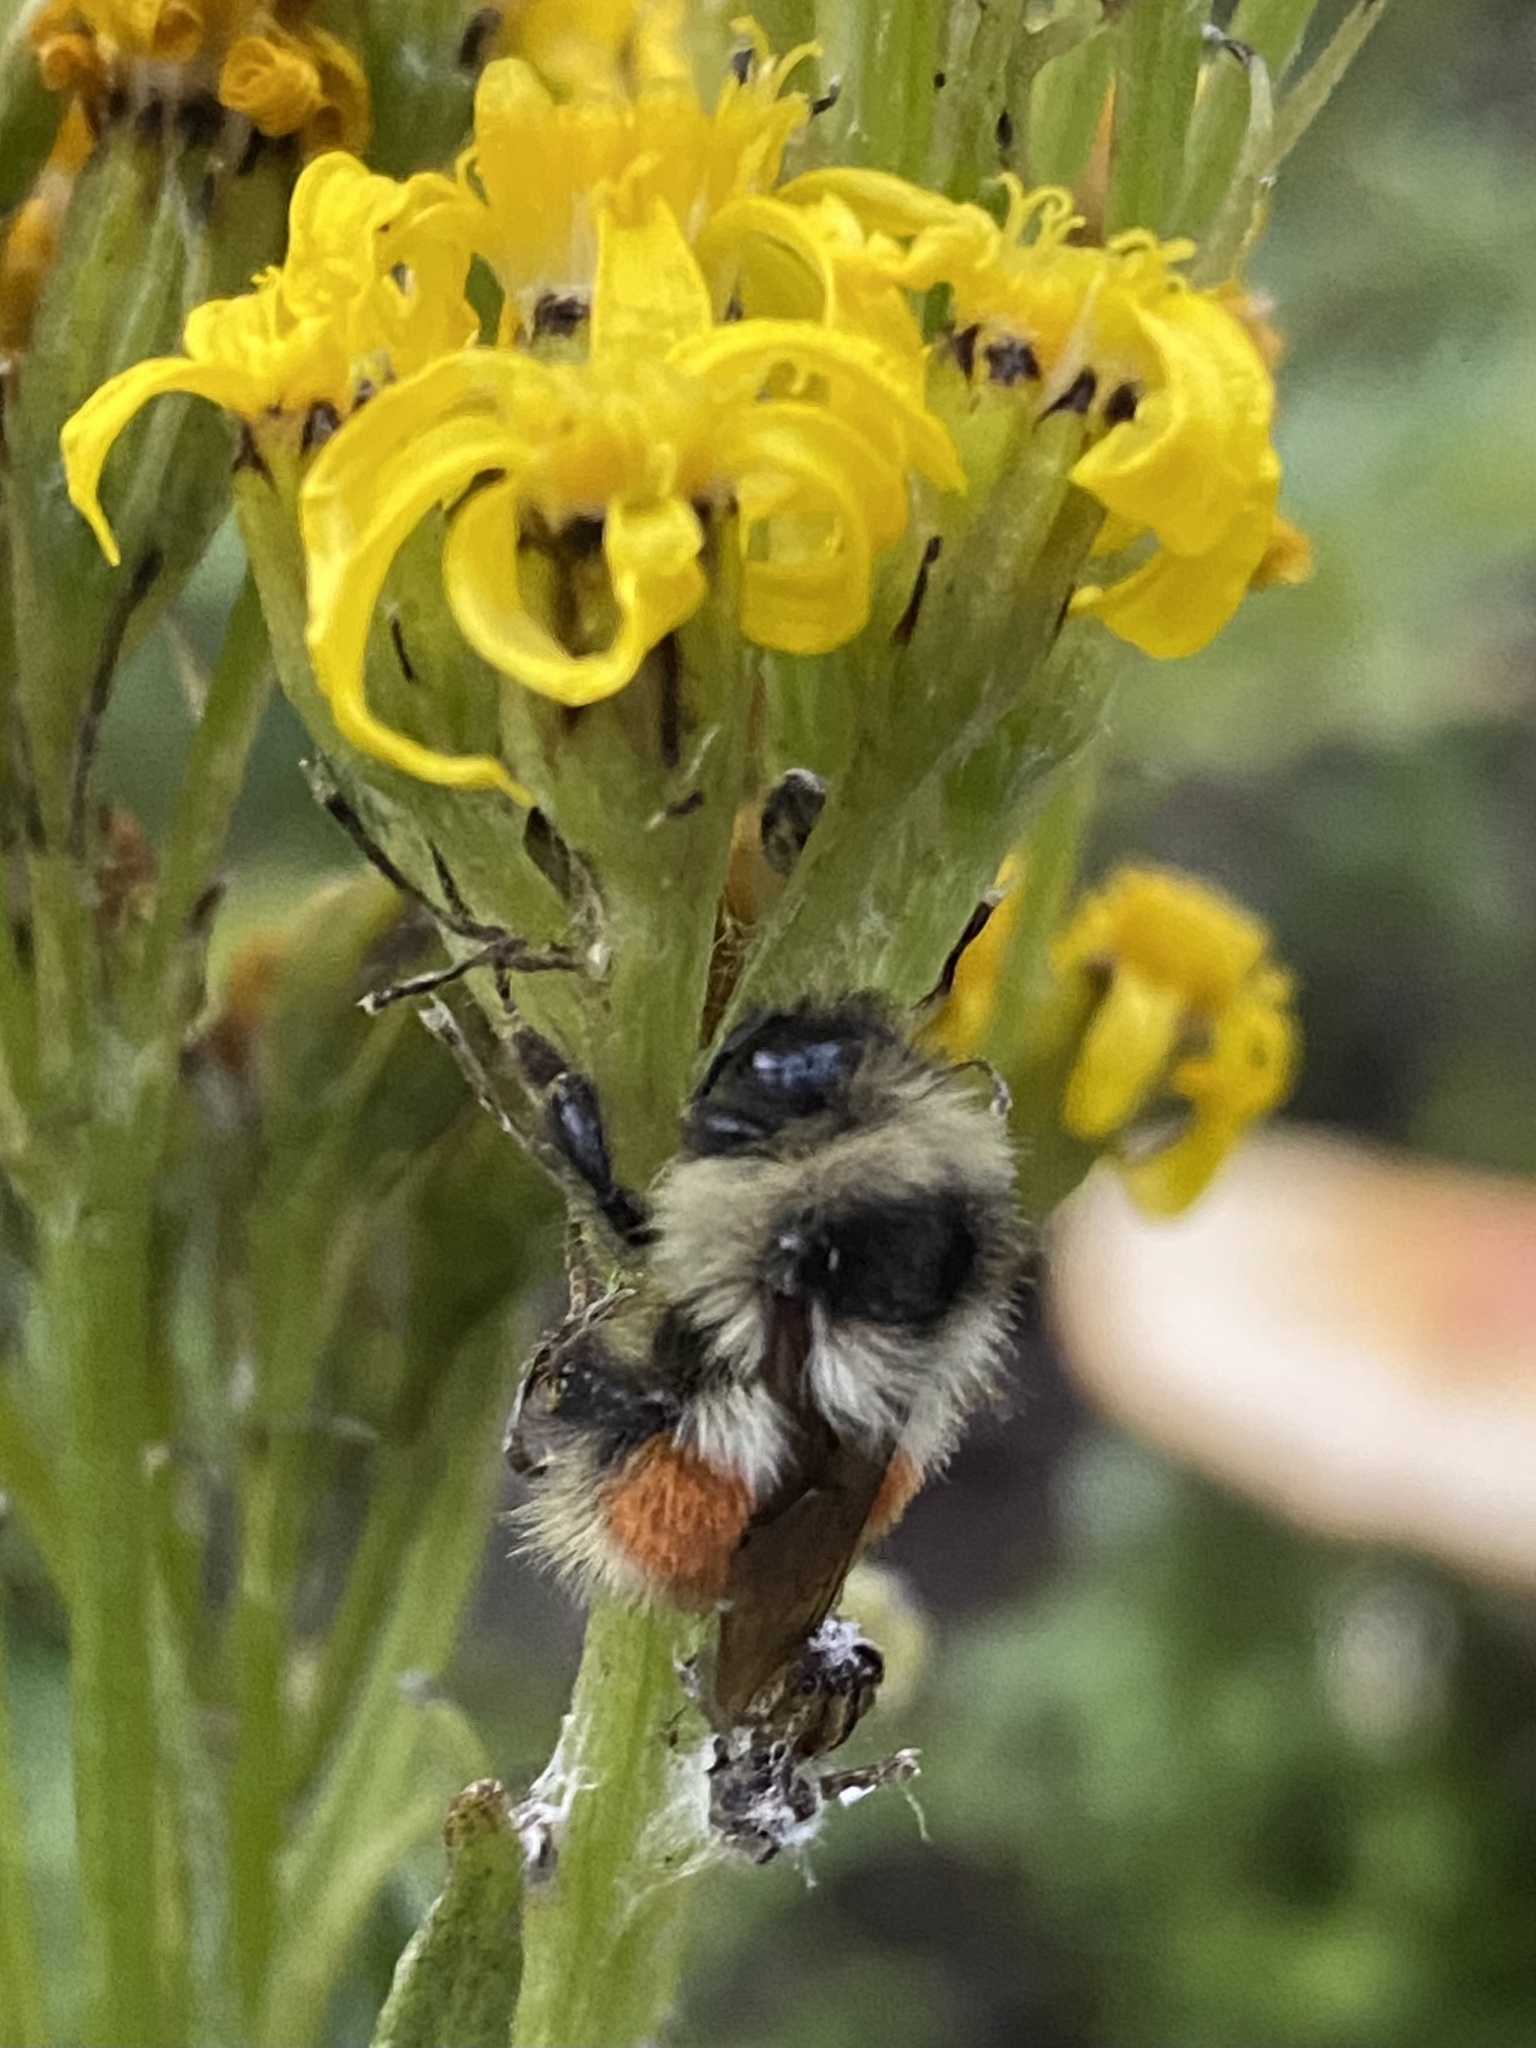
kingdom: Animalia
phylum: Arthropoda
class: Insecta
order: Hymenoptera
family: Apidae
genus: Bombus
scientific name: Bombus
